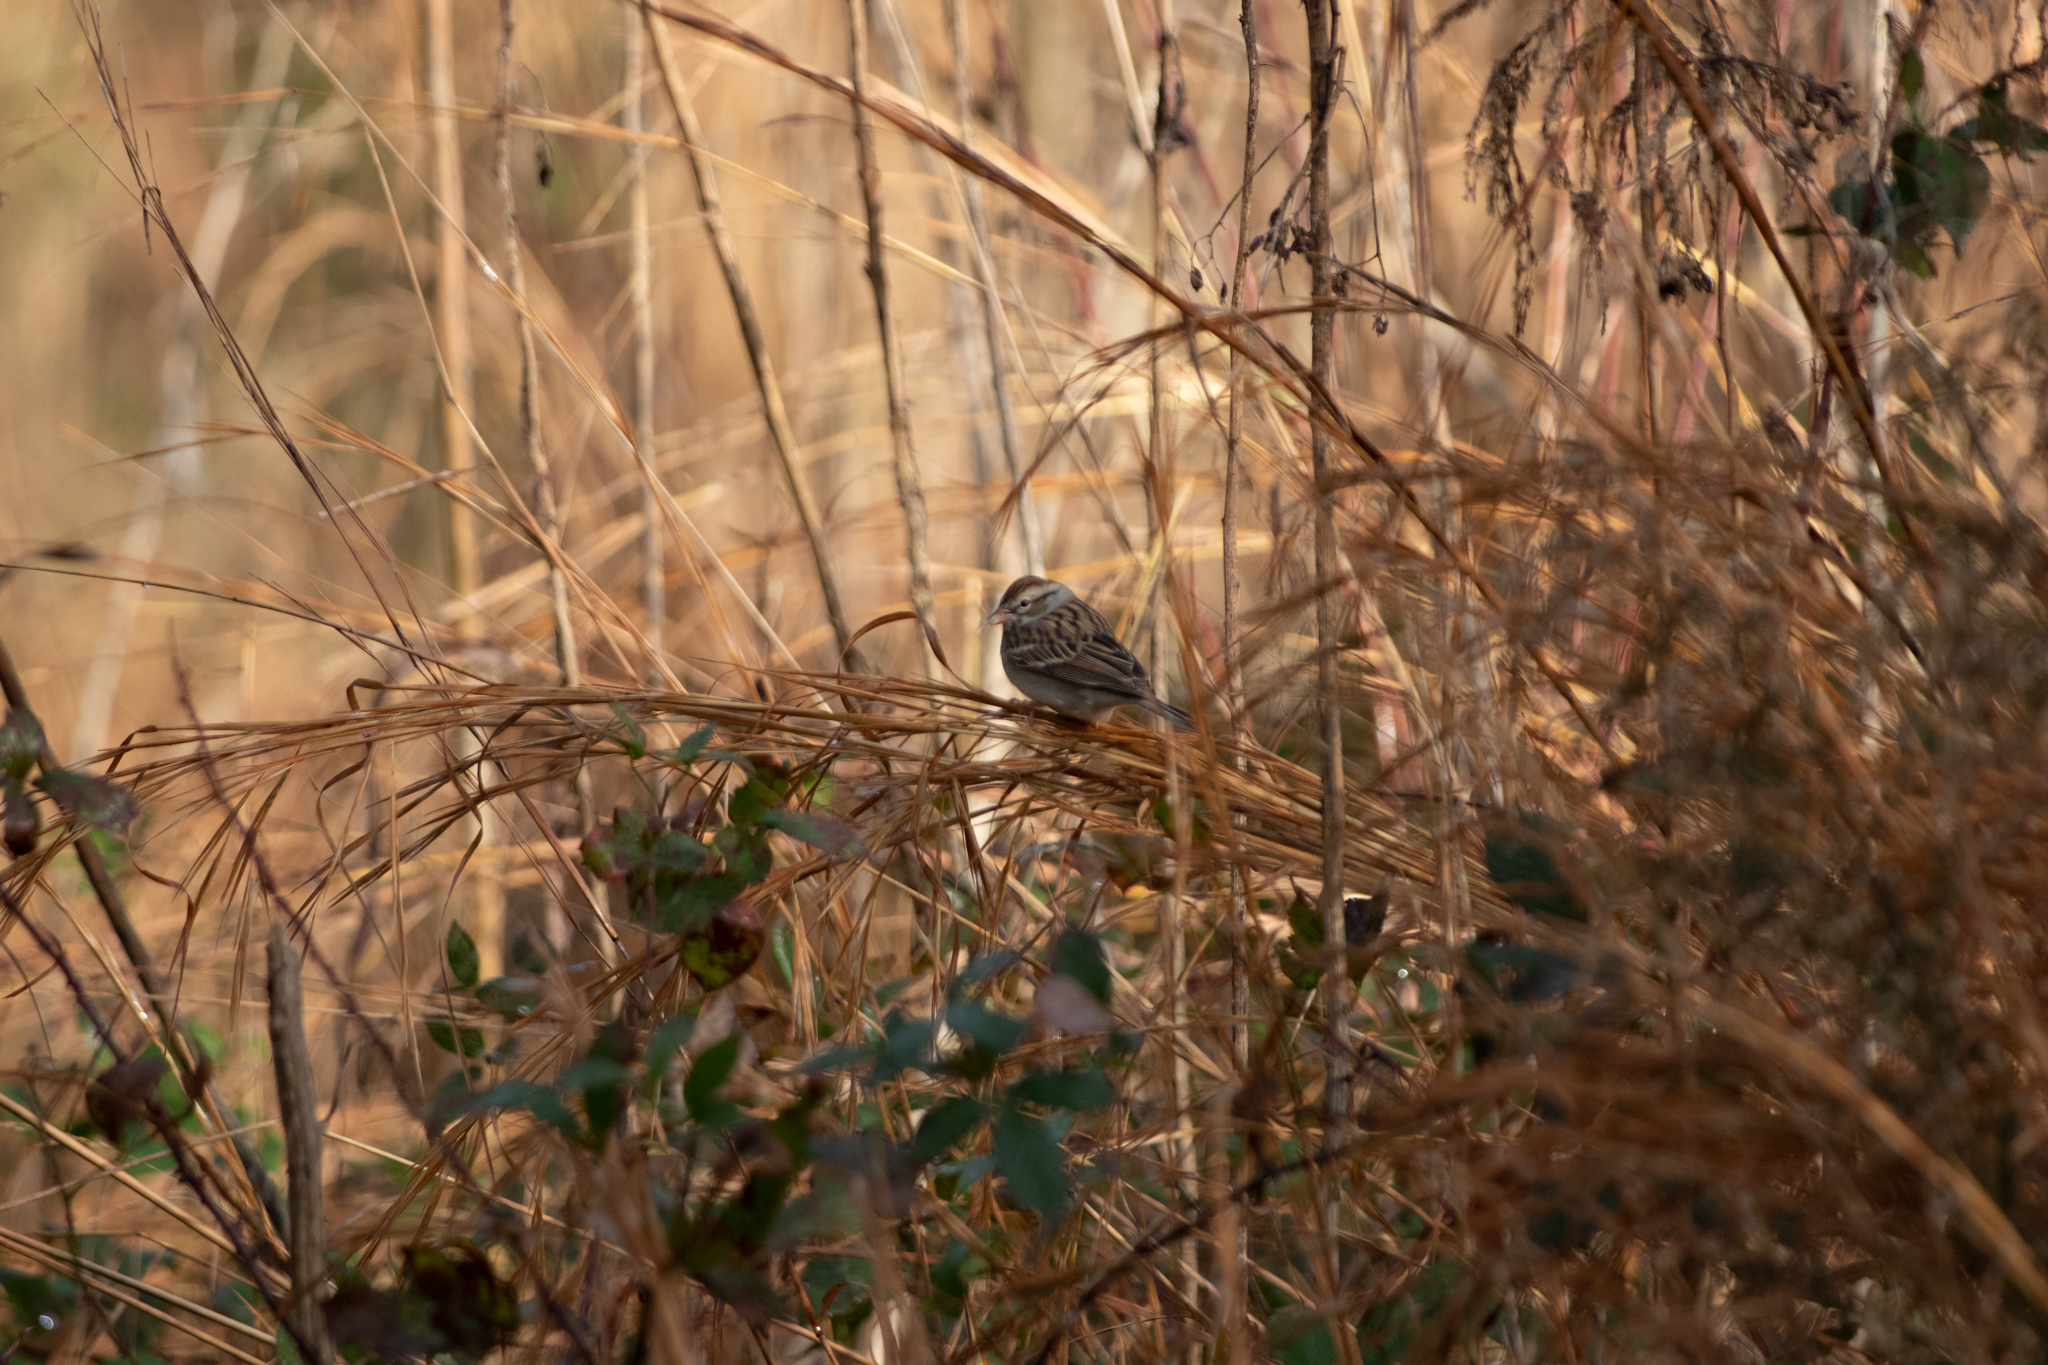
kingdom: Animalia
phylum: Chordata
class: Aves
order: Passeriformes
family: Passerellidae
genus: Spizella
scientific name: Spizella passerina
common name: Chipping sparrow
